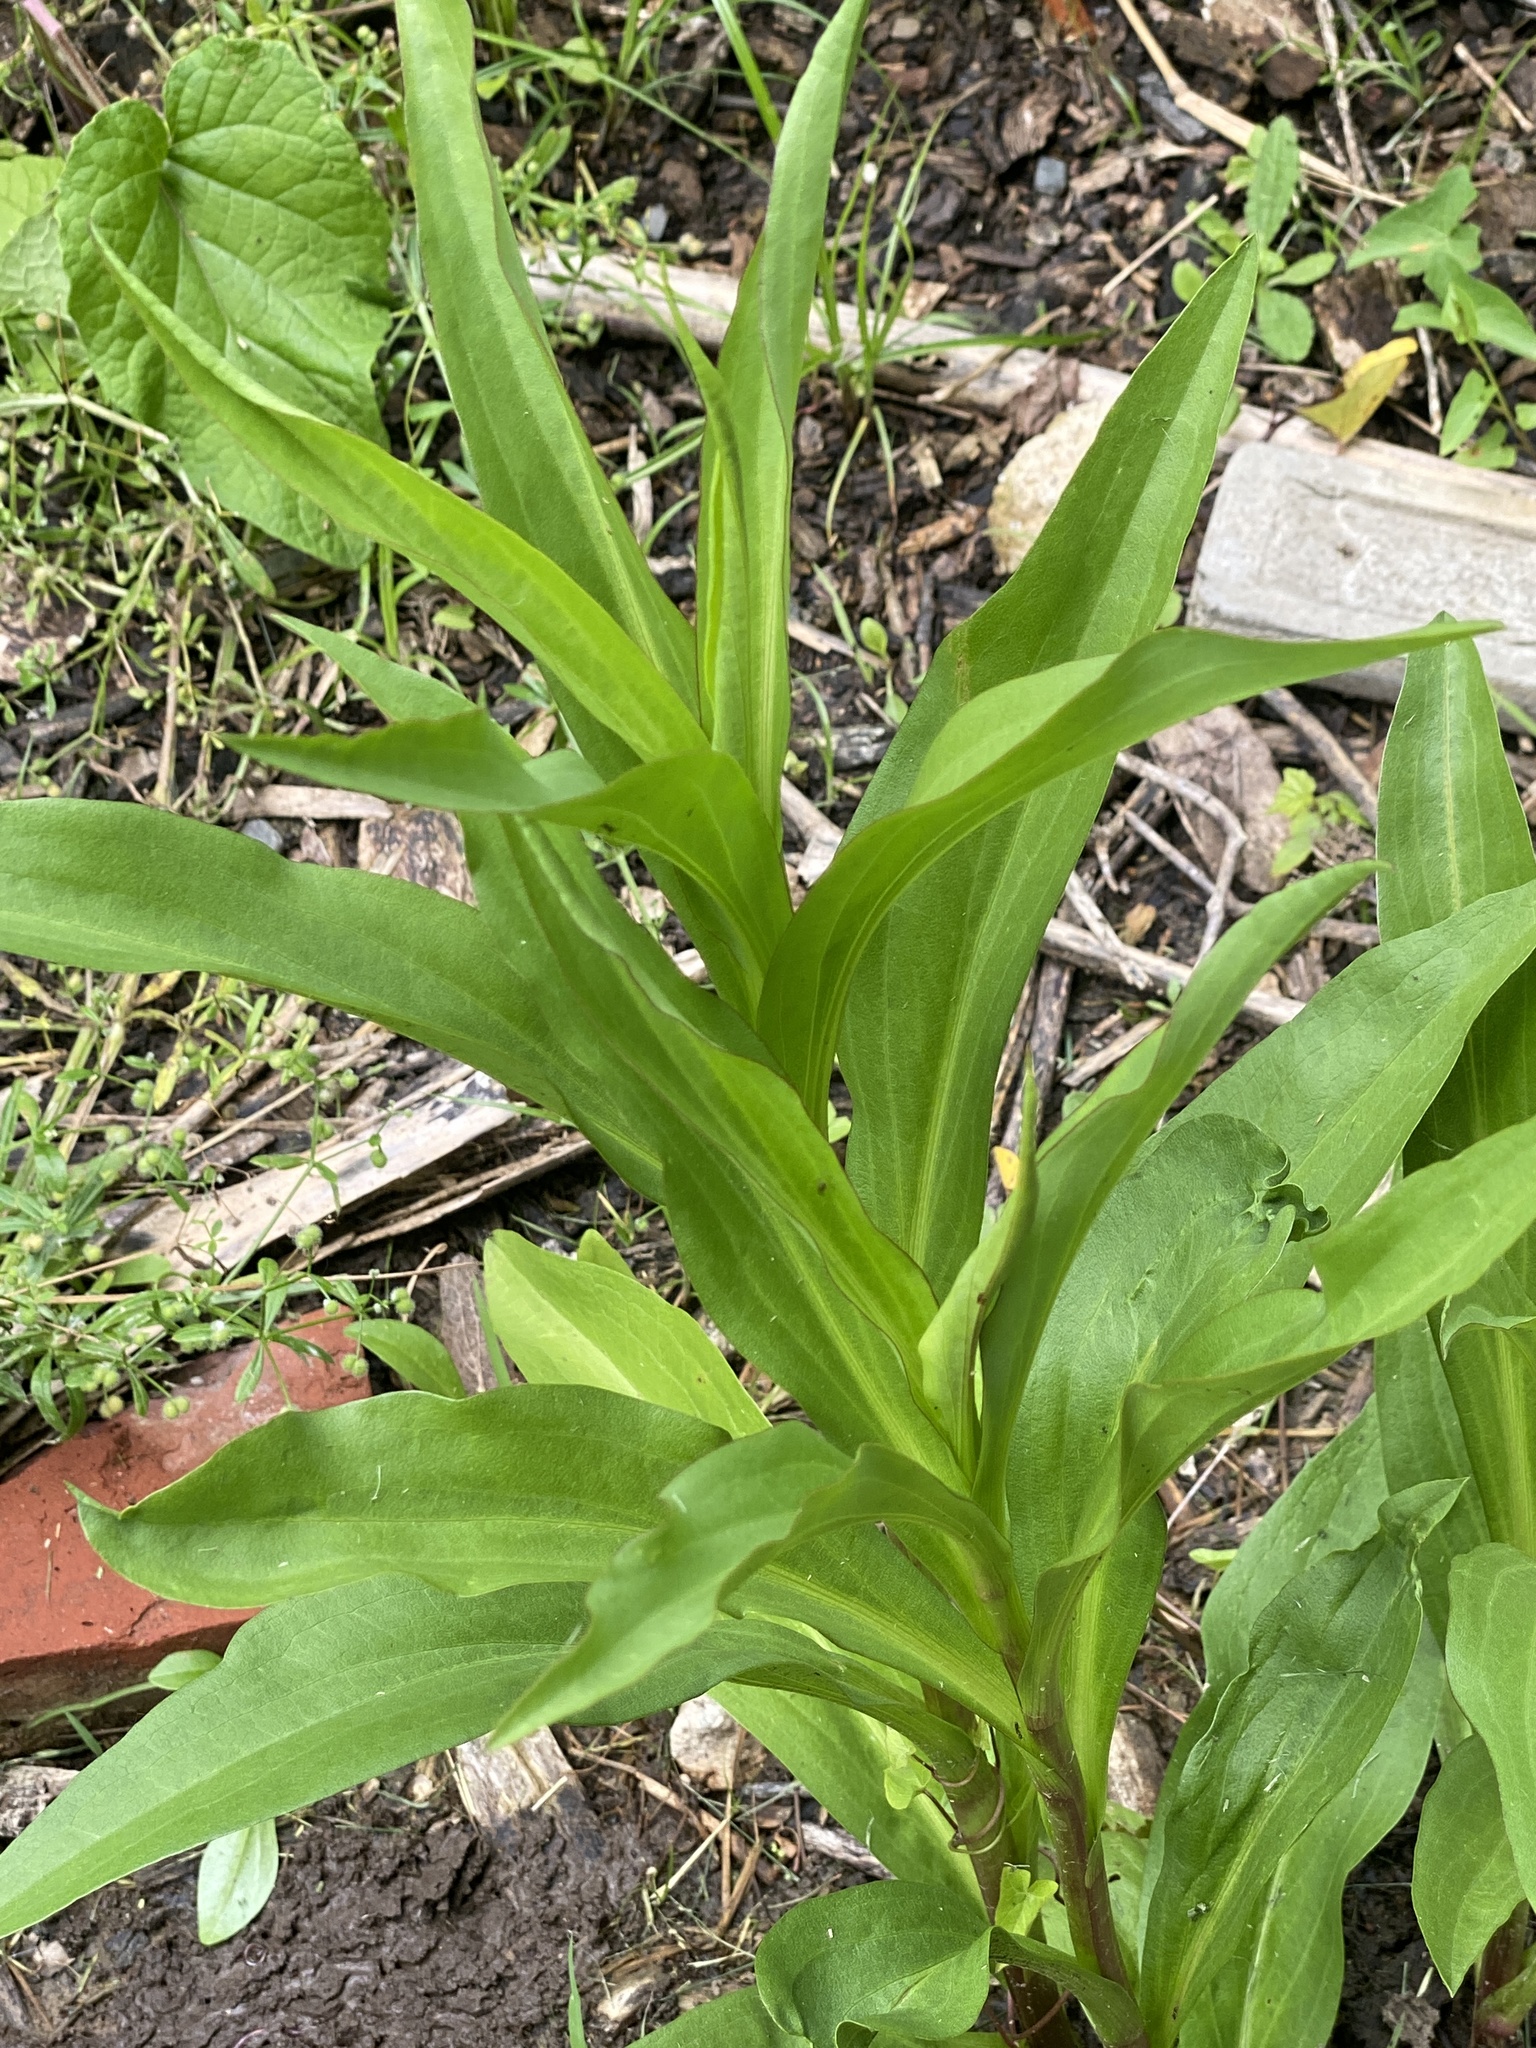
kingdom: Plantae
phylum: Tracheophyta
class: Magnoliopsida
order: Asterales
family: Asteraceae
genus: Solidago
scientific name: Solidago sempervirens
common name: Salt-marsh goldenrod
